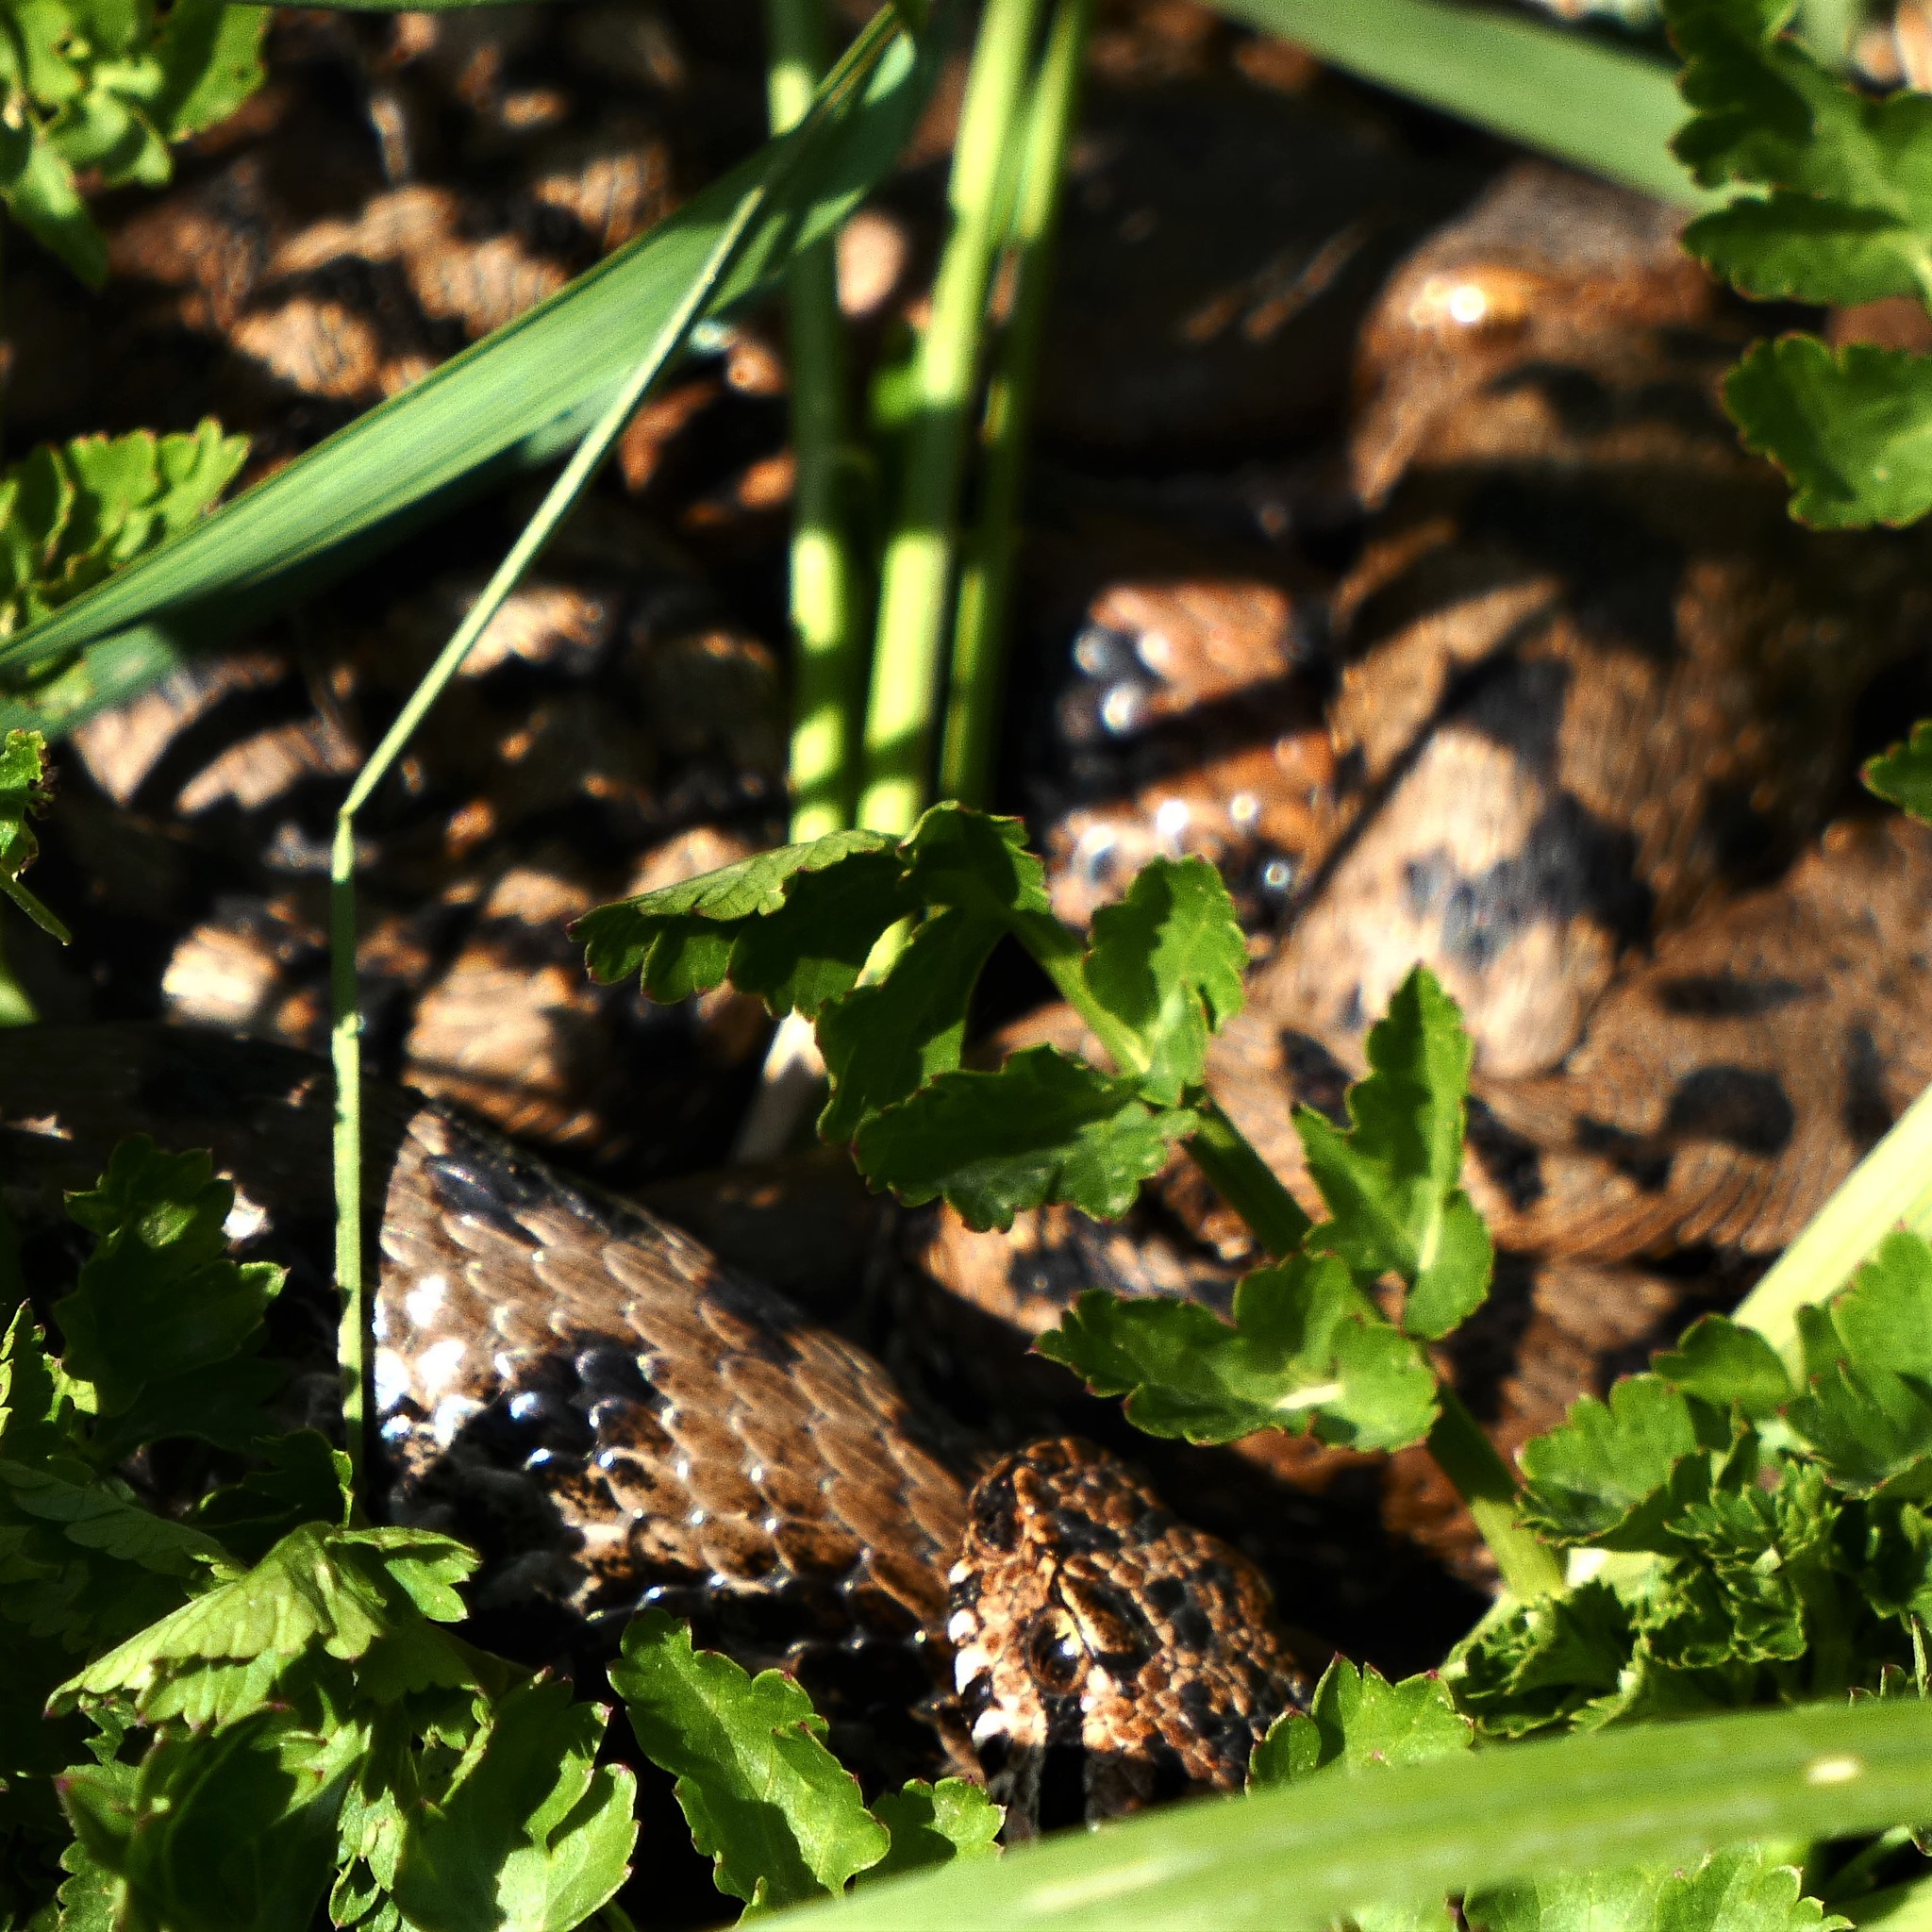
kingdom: Animalia
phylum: Chordata
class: Squamata
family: Viperidae
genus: Vipera
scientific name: Vipera aspis
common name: Asp viper
